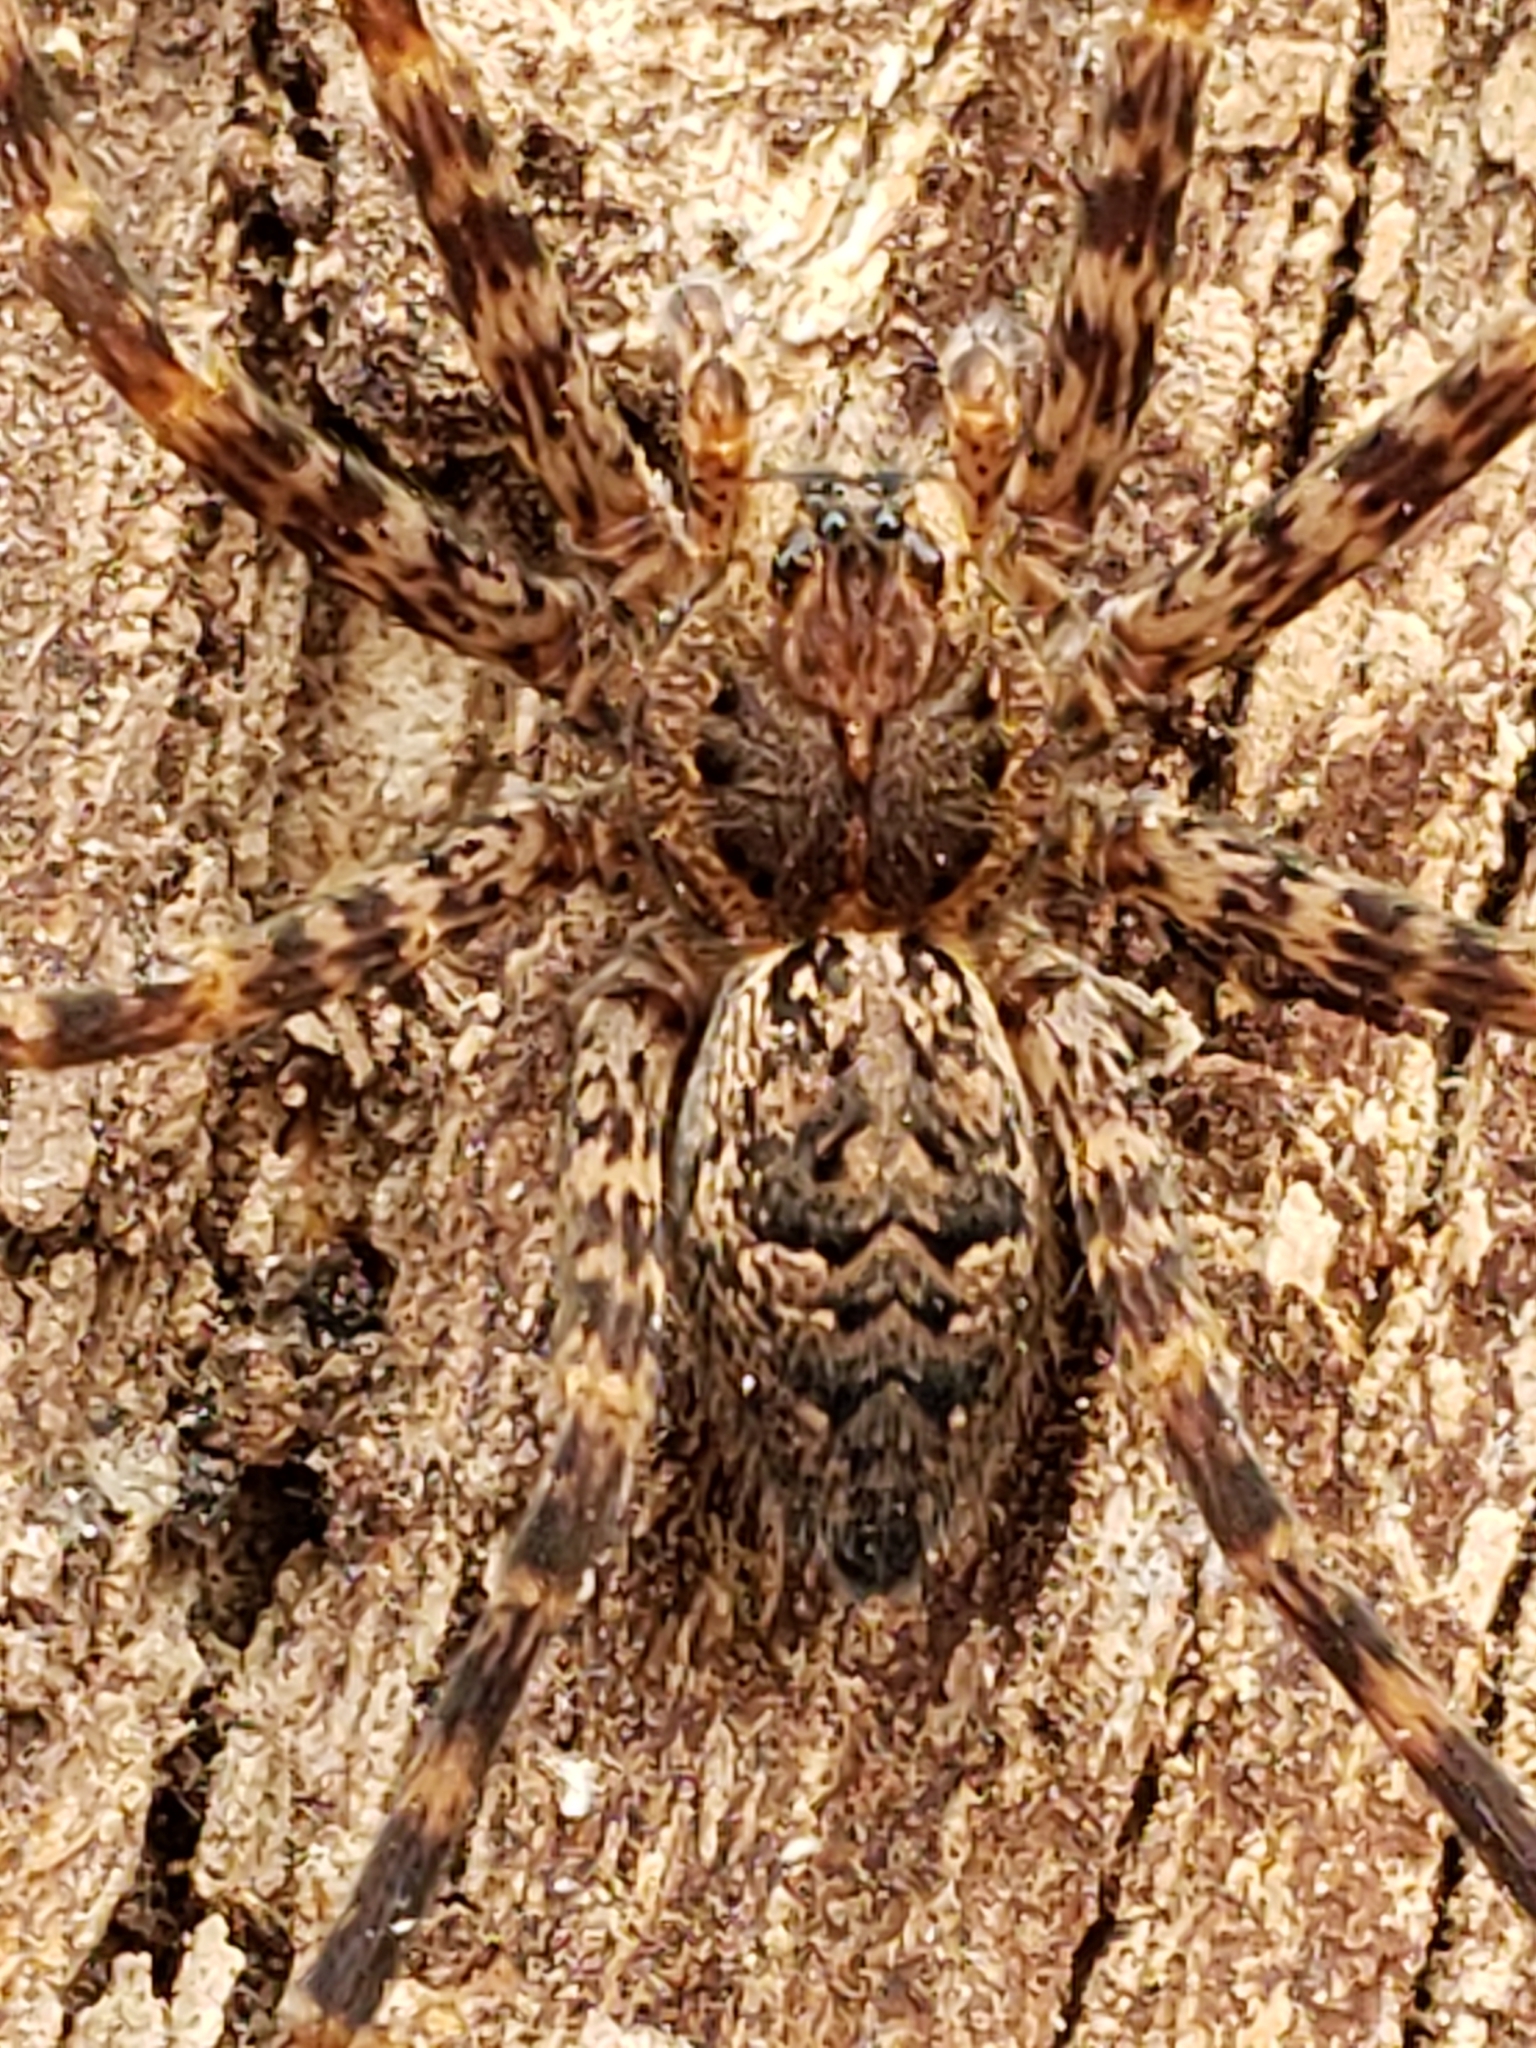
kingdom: Animalia
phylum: Arthropoda
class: Arachnida
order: Araneae
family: Pisauridae
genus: Dolomedes
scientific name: Dolomedes tenebrosus
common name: Dark fishing spider
